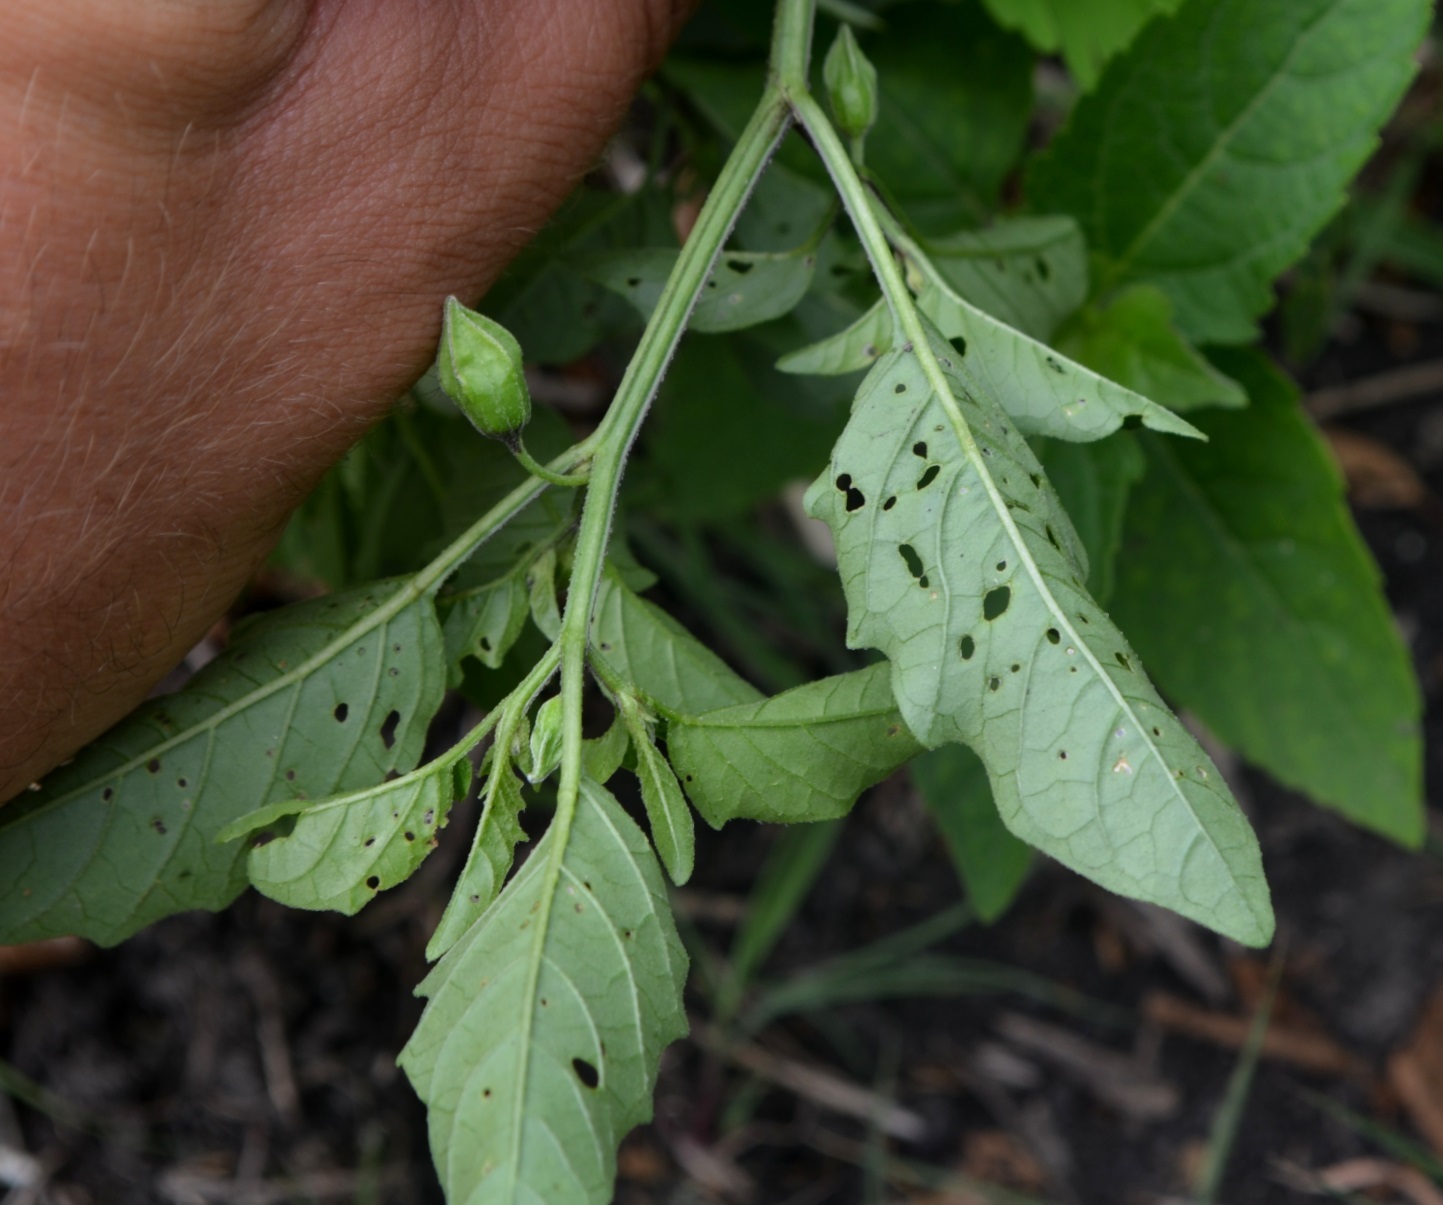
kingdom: Plantae
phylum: Tracheophyta
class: Magnoliopsida
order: Solanales
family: Solanaceae
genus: Physalis
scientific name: Physalis longifolia
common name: Common ground-cherry
